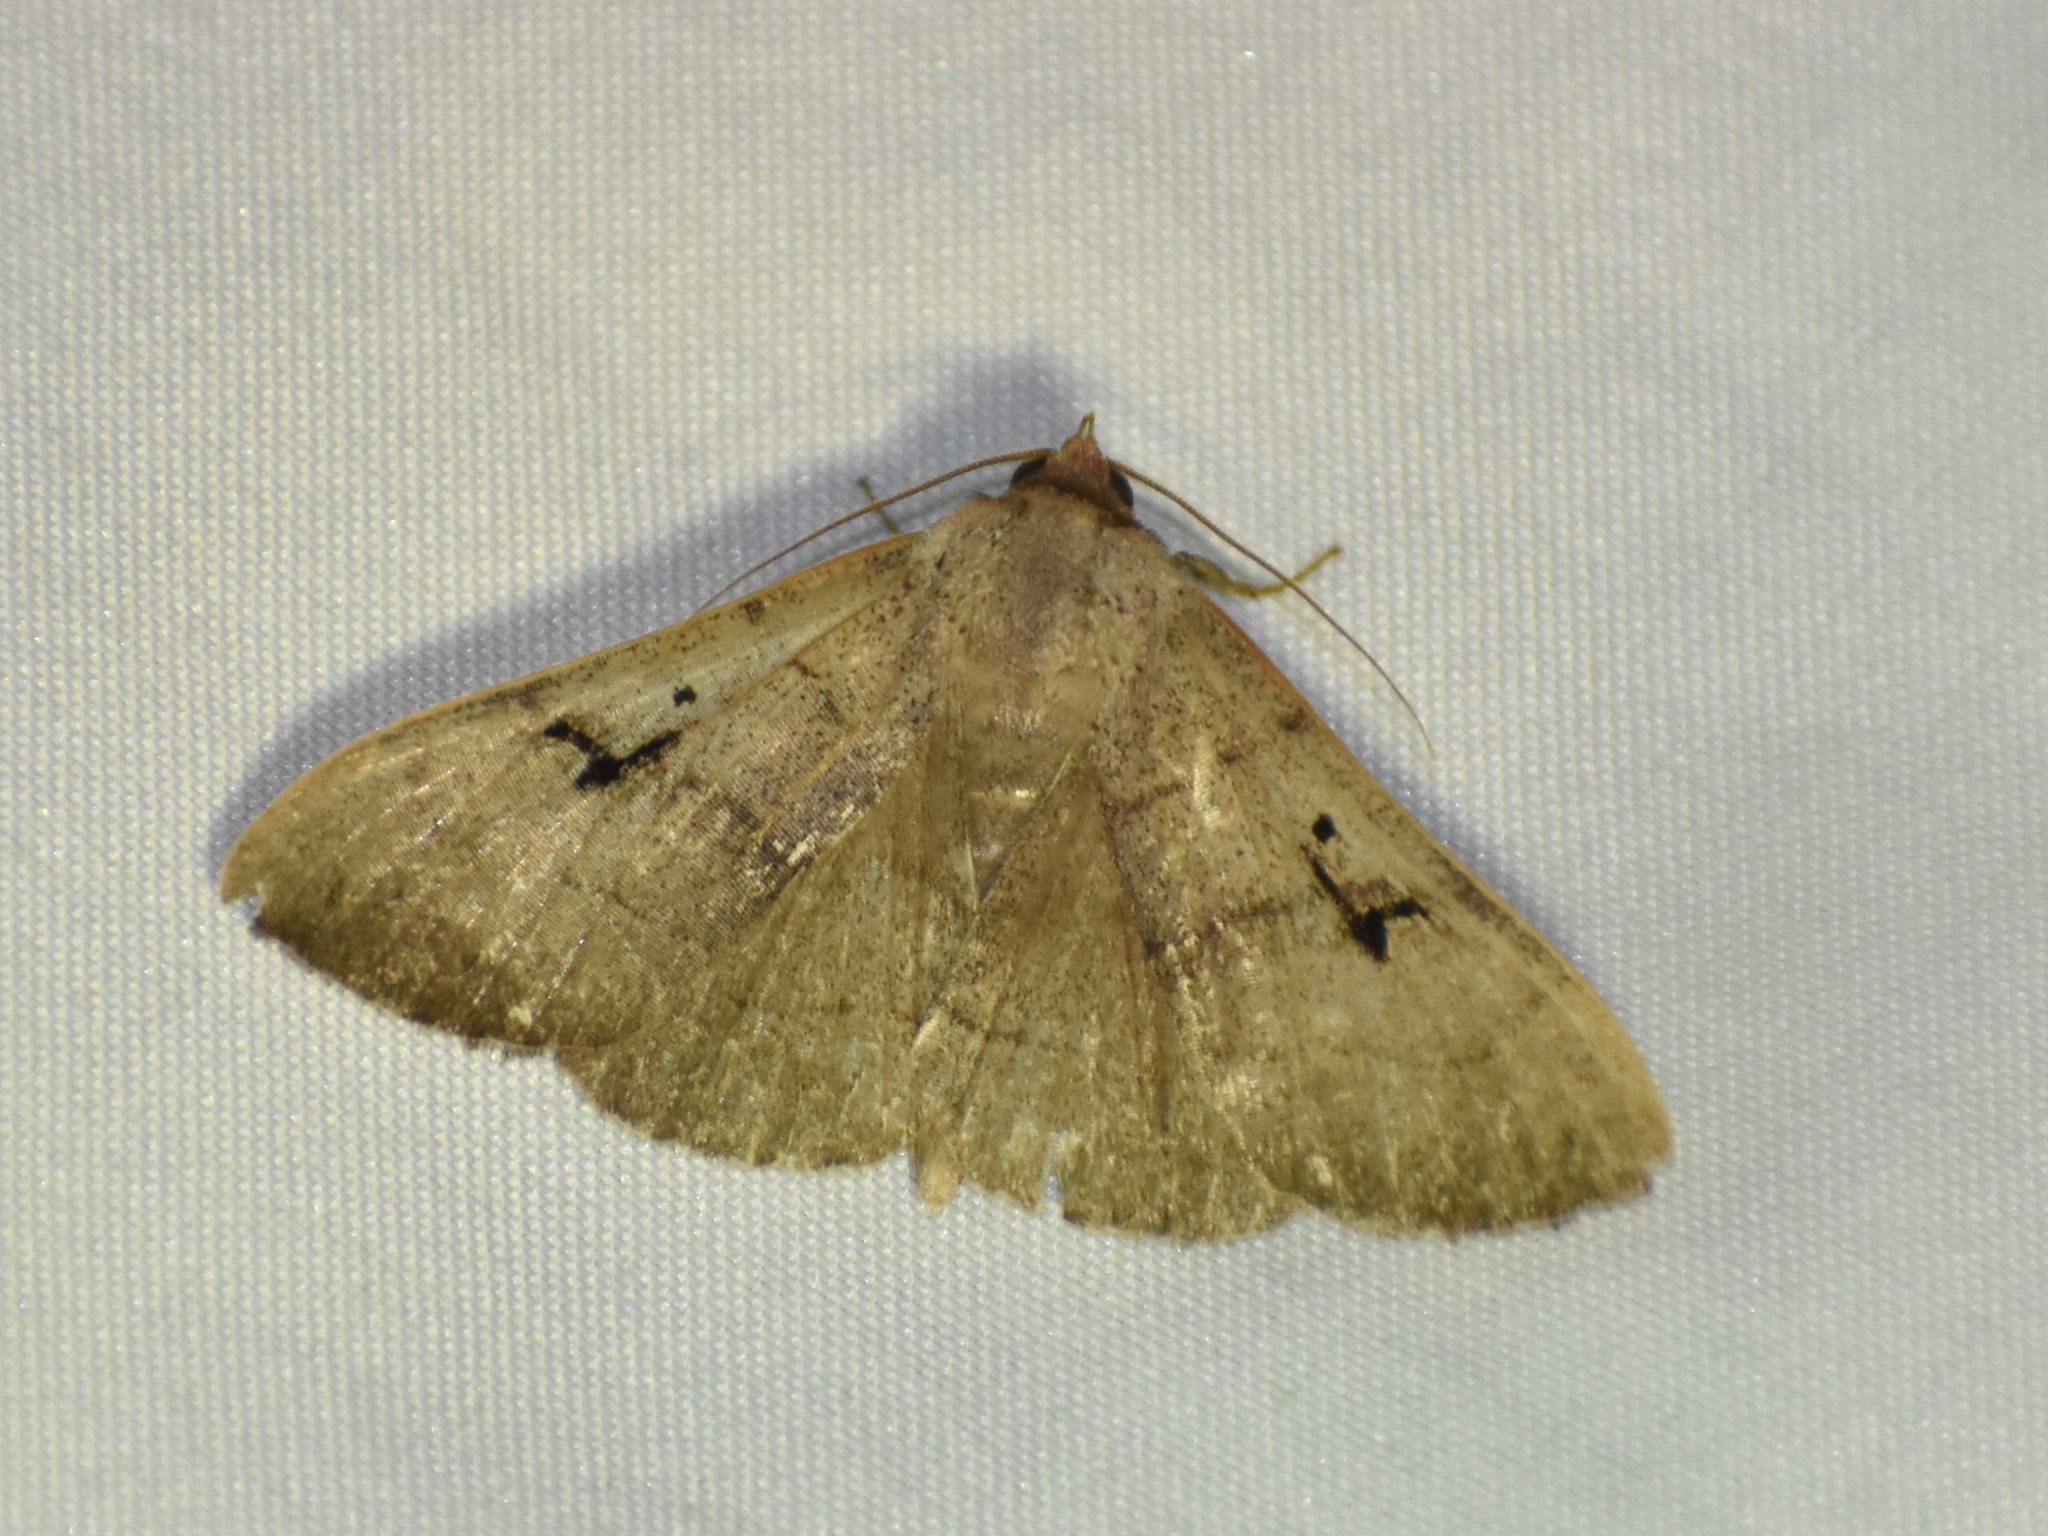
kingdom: Animalia
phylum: Arthropoda
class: Insecta
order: Lepidoptera
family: Erebidae
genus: Panopoda
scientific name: Panopoda carneicosta
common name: Brown panopoda moth
